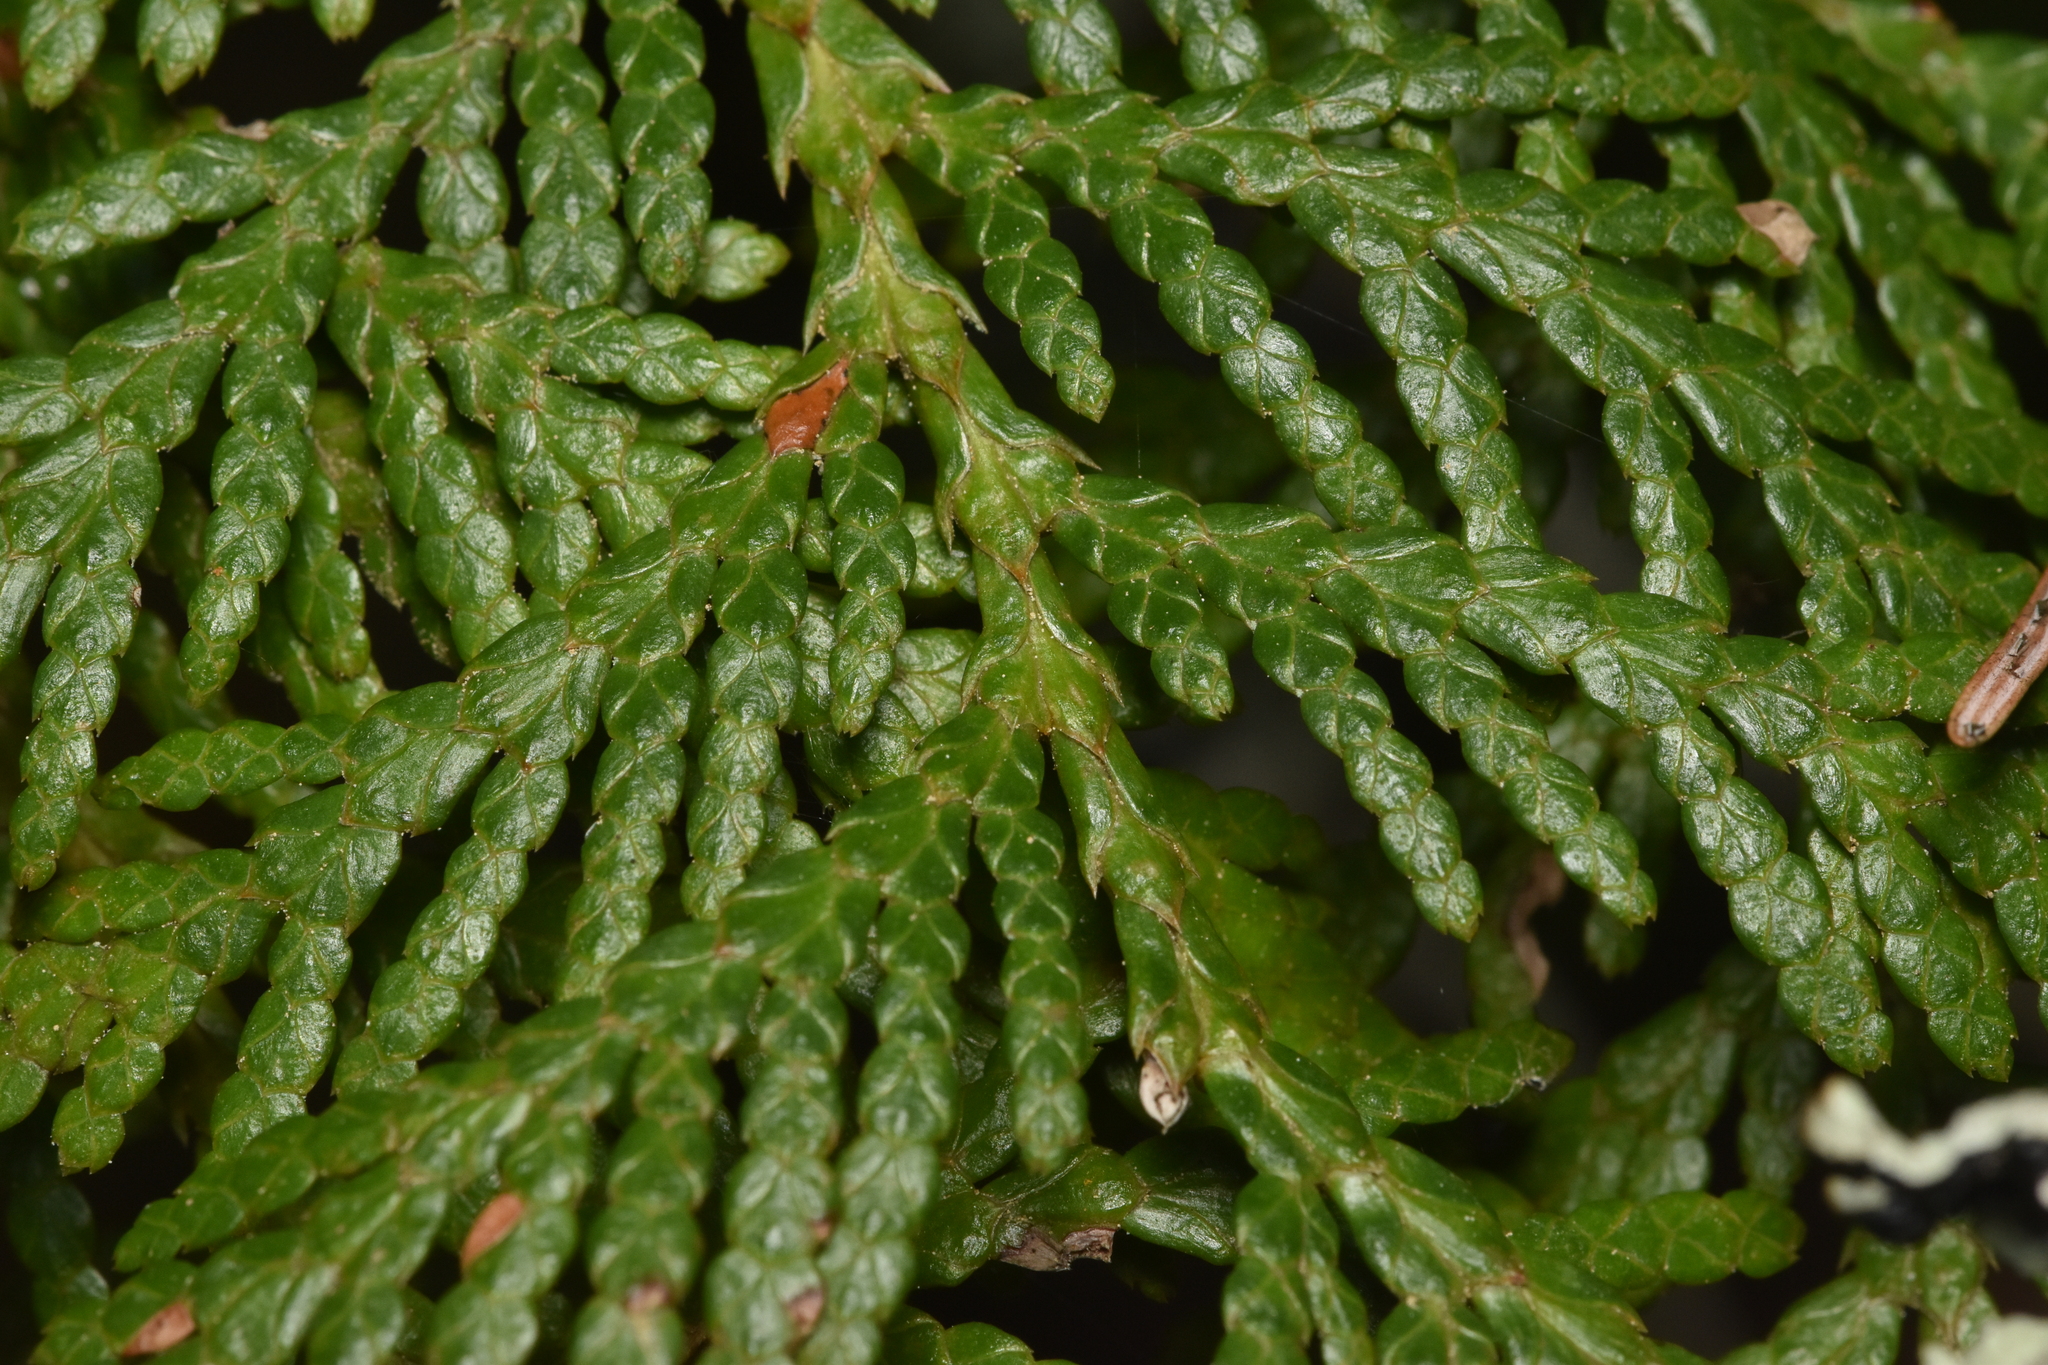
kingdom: Plantae
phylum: Tracheophyta
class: Pinopsida
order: Pinales
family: Cupressaceae
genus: Thuja
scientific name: Thuja plicata
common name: Western red-cedar
